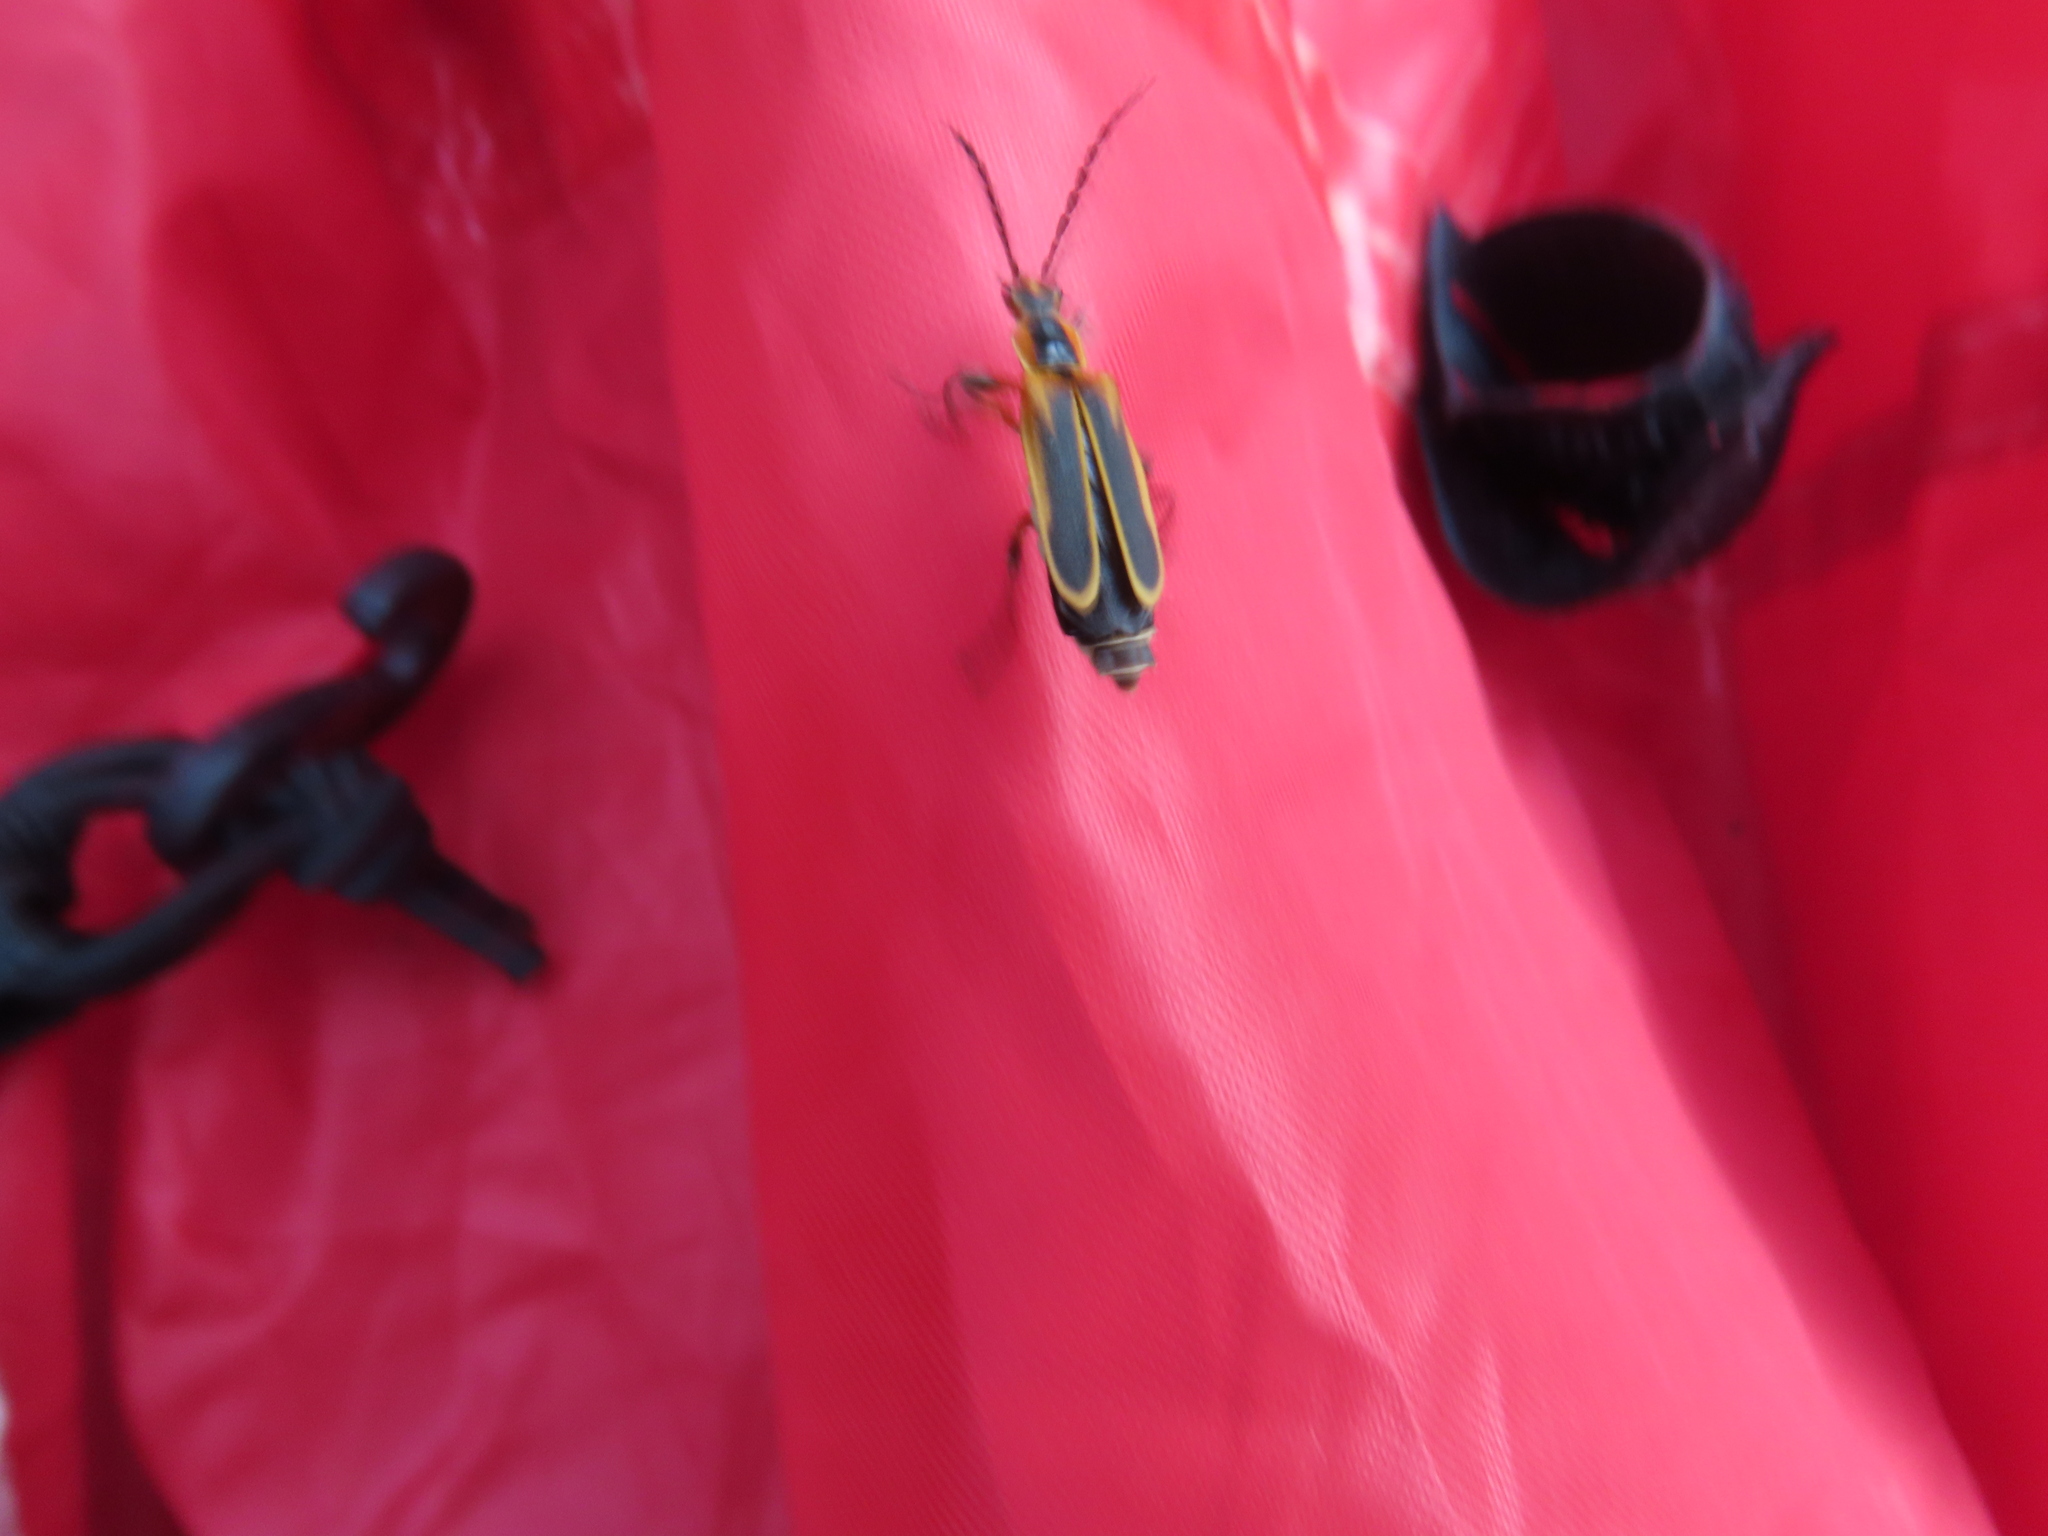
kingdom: Animalia
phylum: Arthropoda
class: Insecta
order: Coleoptera
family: Cantharidae
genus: Chauliognathus
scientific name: Chauliognathus marginatus
